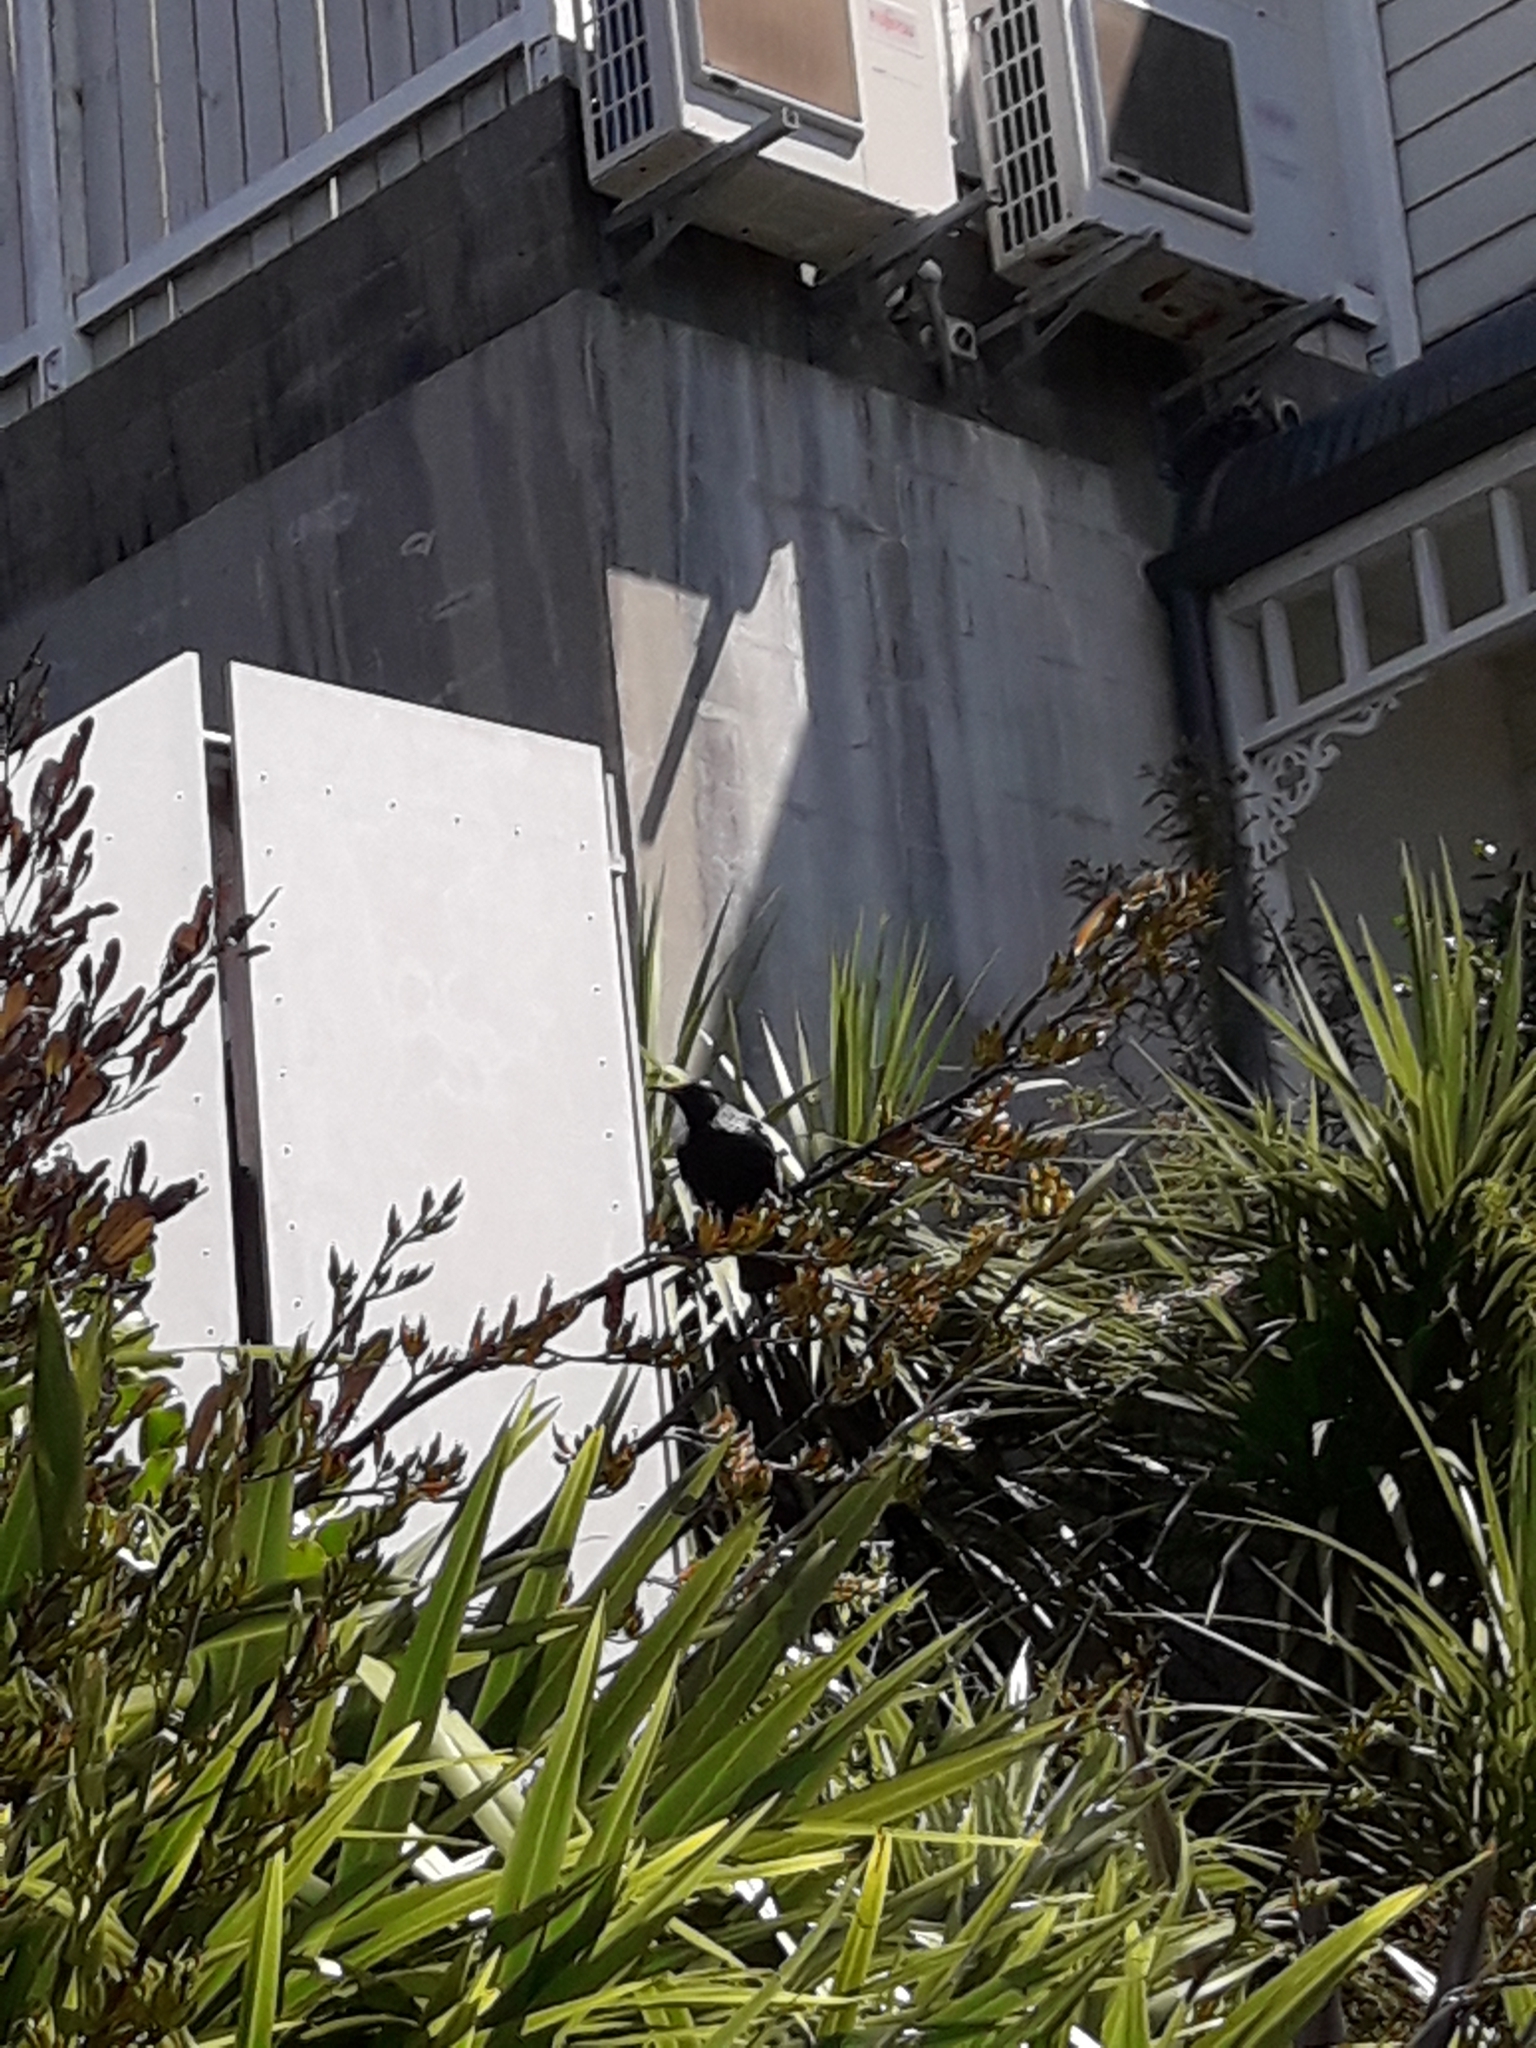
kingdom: Animalia
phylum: Chordata
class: Aves
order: Passeriformes
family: Meliphagidae
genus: Prosthemadera
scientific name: Prosthemadera novaeseelandiae
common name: Tui
